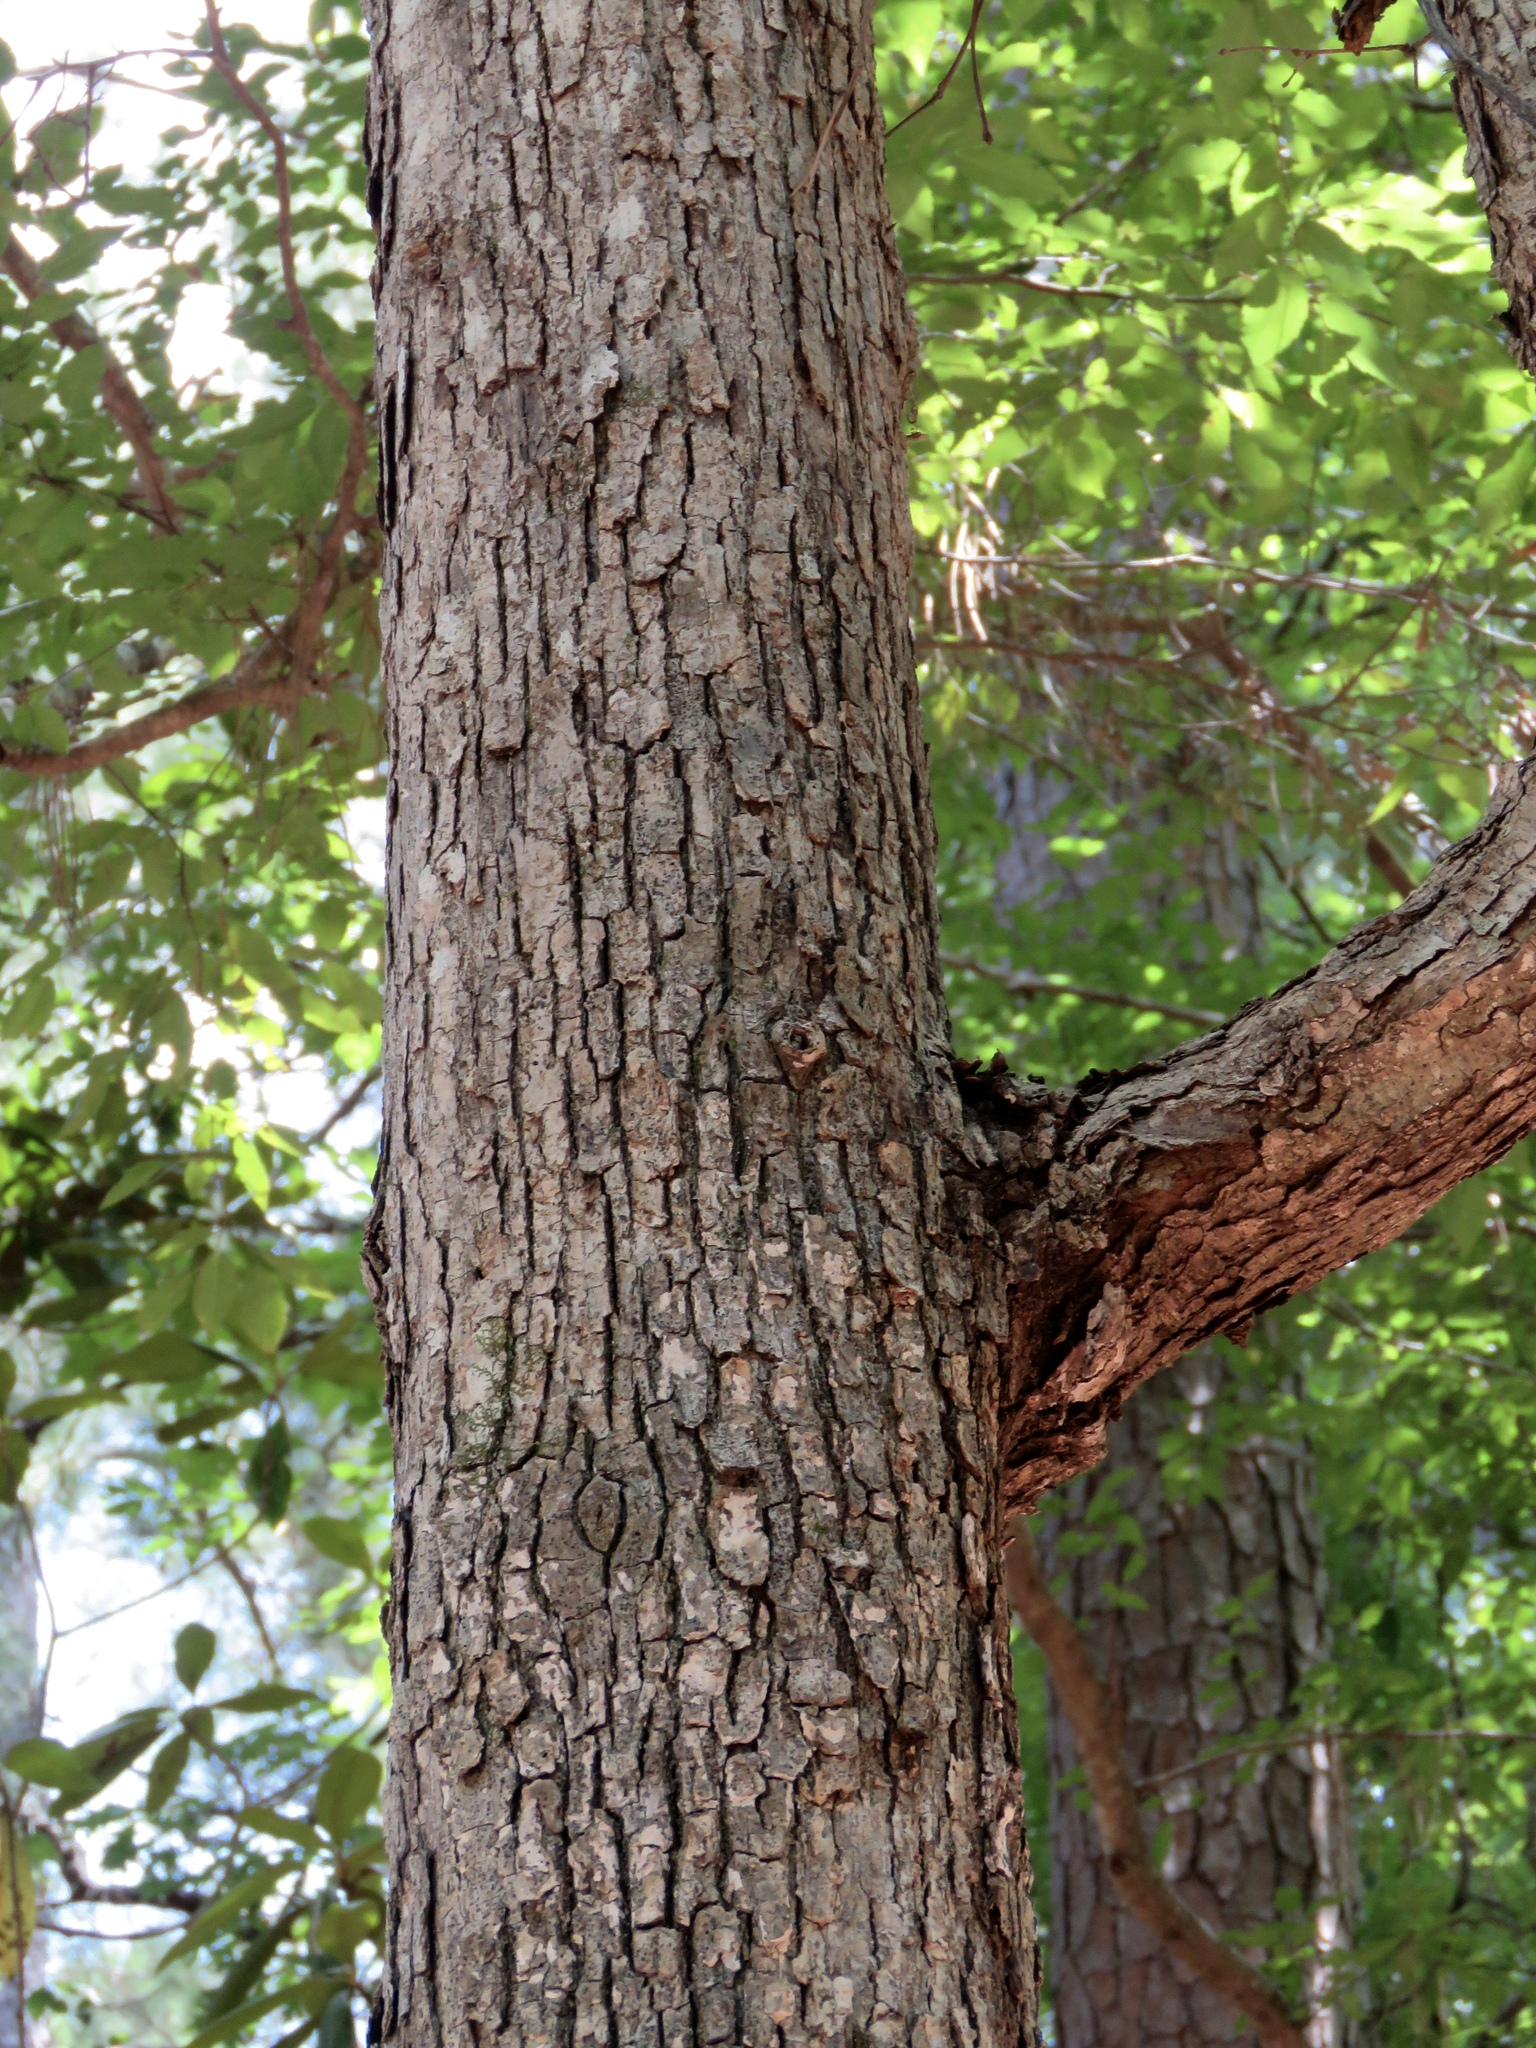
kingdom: Plantae
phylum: Tracheophyta
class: Magnoliopsida
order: Fagales
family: Fagaceae
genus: Quercus
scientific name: Quercus alba
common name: White oak
